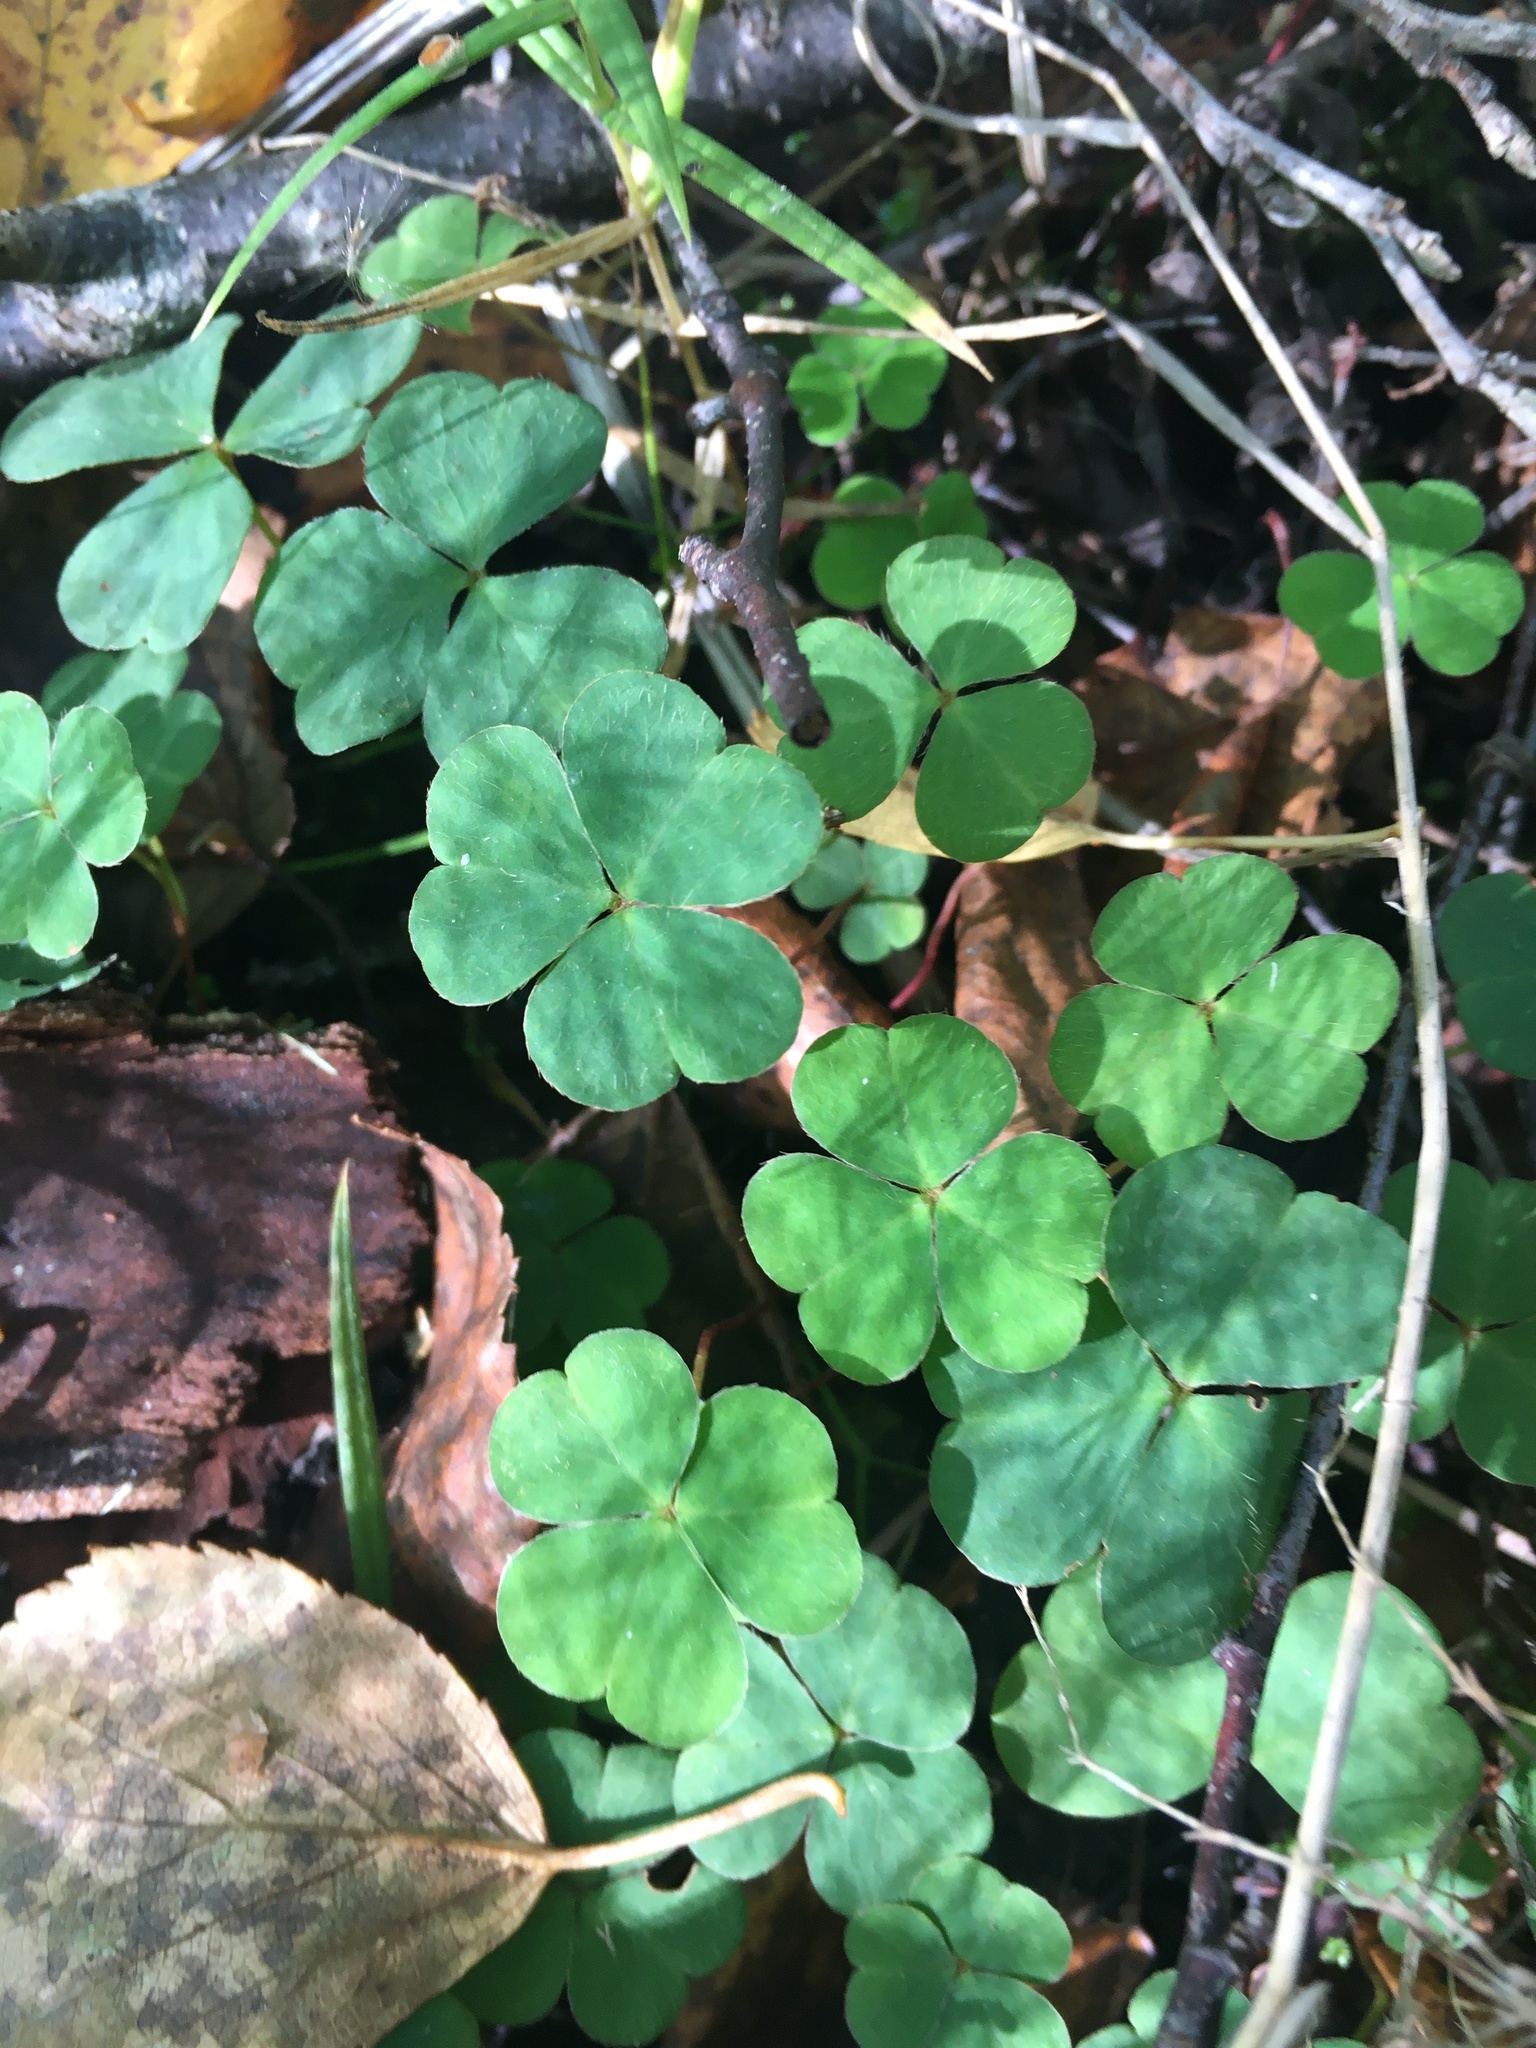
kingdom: Plantae
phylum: Tracheophyta
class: Magnoliopsida
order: Oxalidales
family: Oxalidaceae
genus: Oxalis
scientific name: Oxalis acetosella
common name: Wood-sorrel
